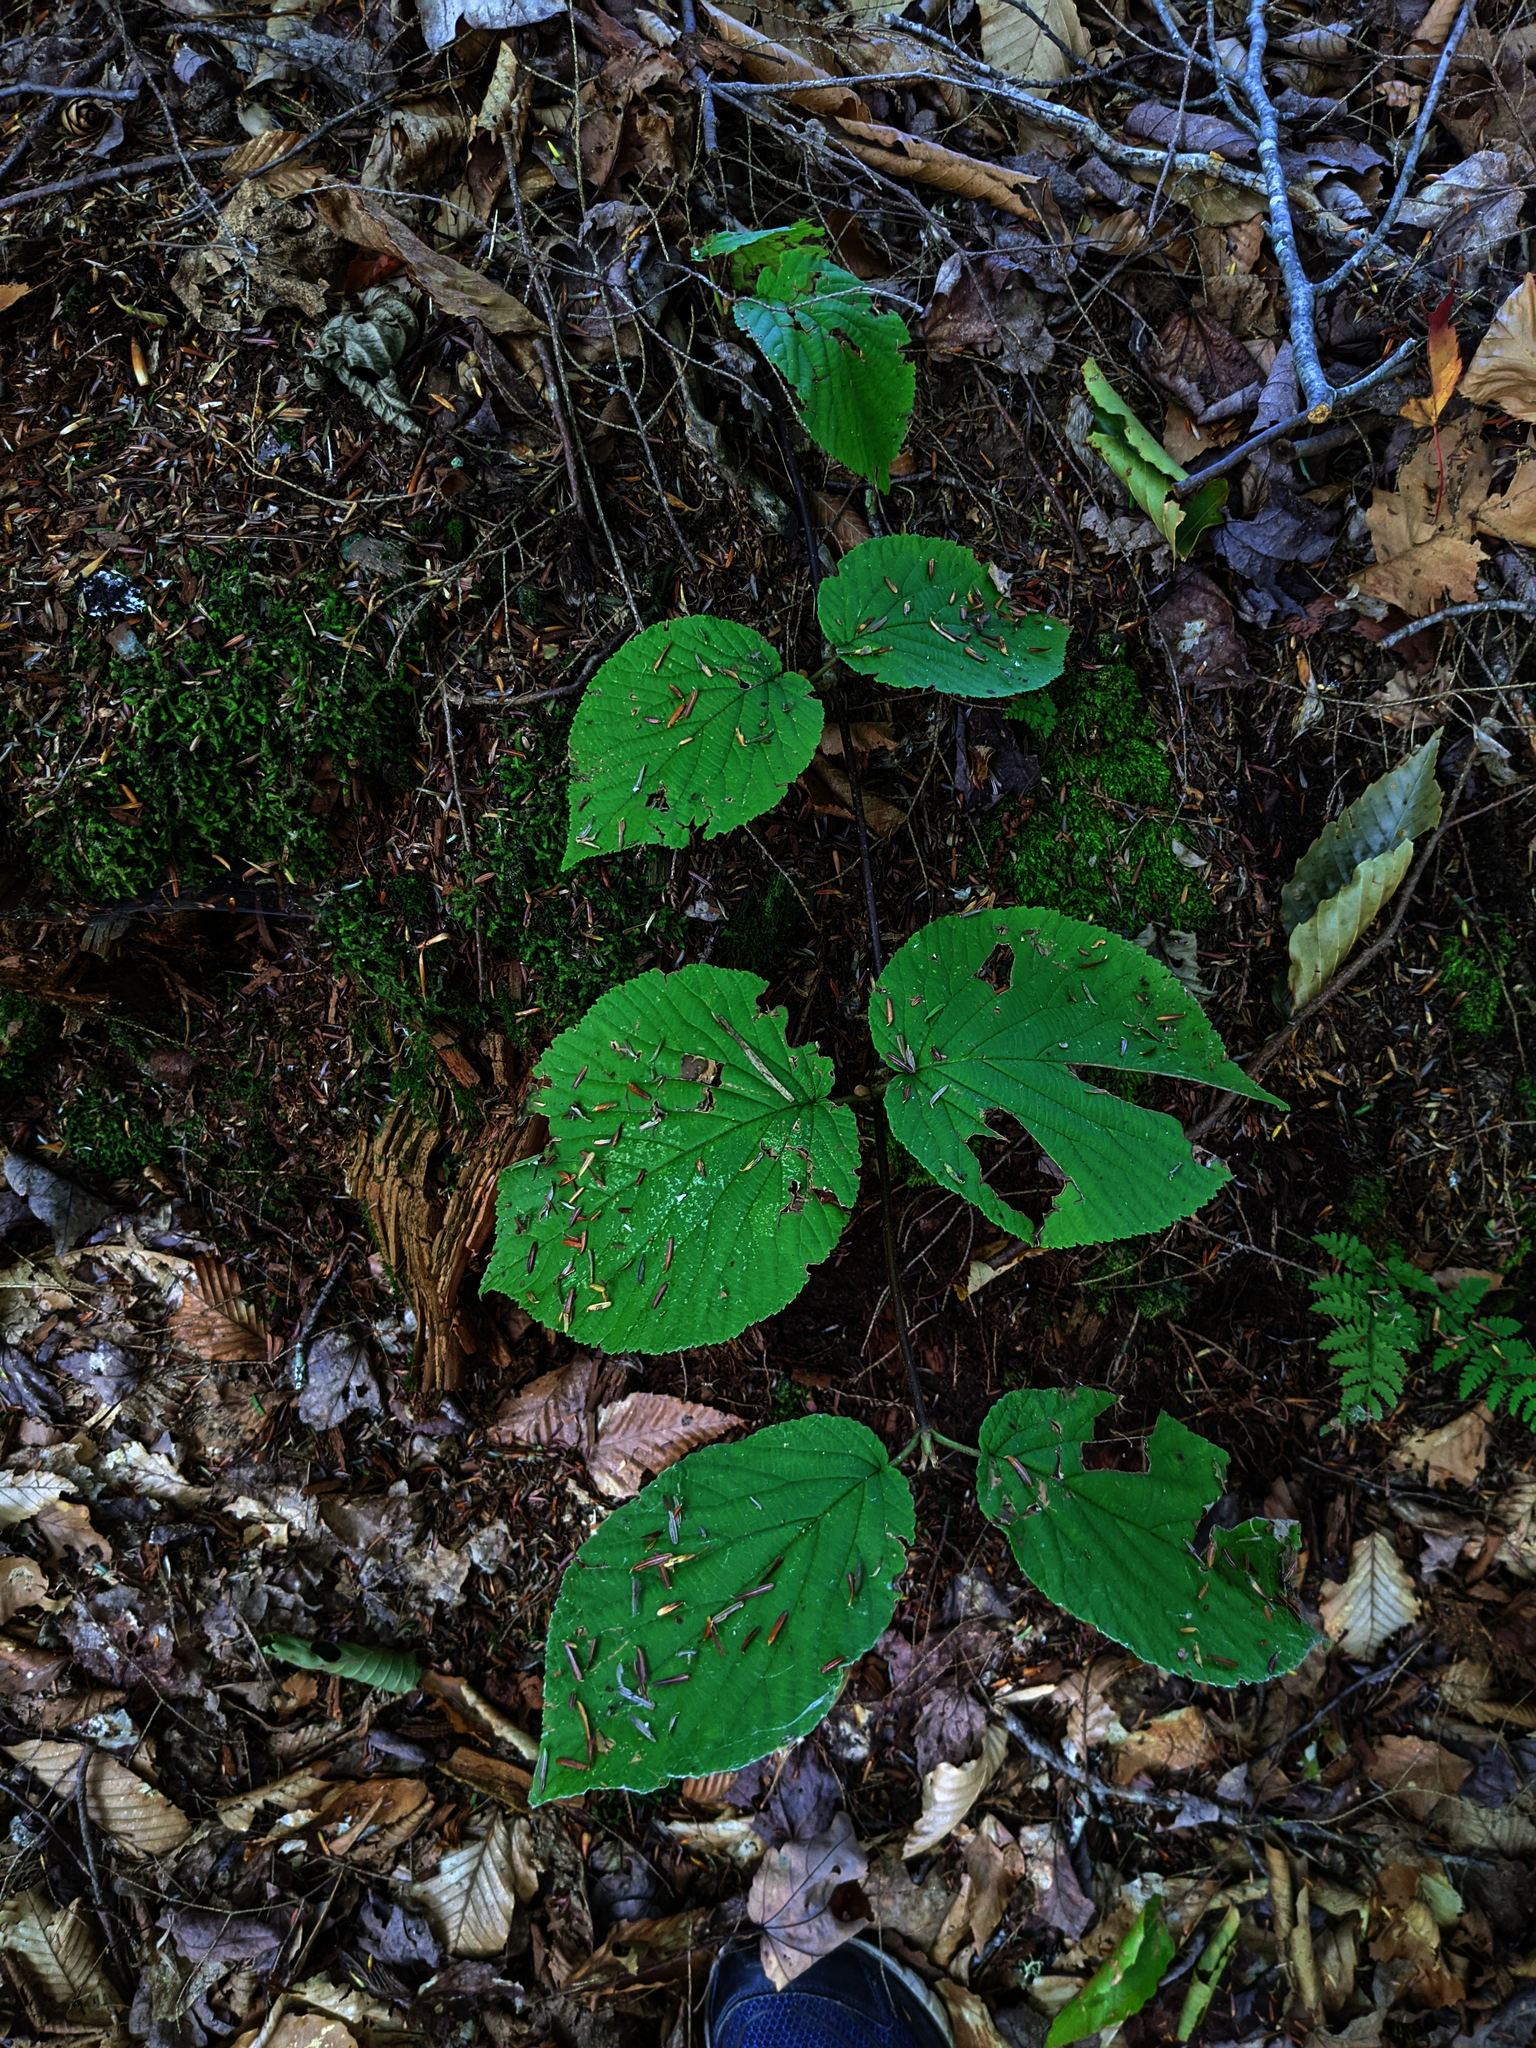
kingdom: Plantae
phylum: Tracheophyta
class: Magnoliopsida
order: Dipsacales
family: Viburnaceae
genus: Viburnum
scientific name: Viburnum lantanoides
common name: Hobblebush
